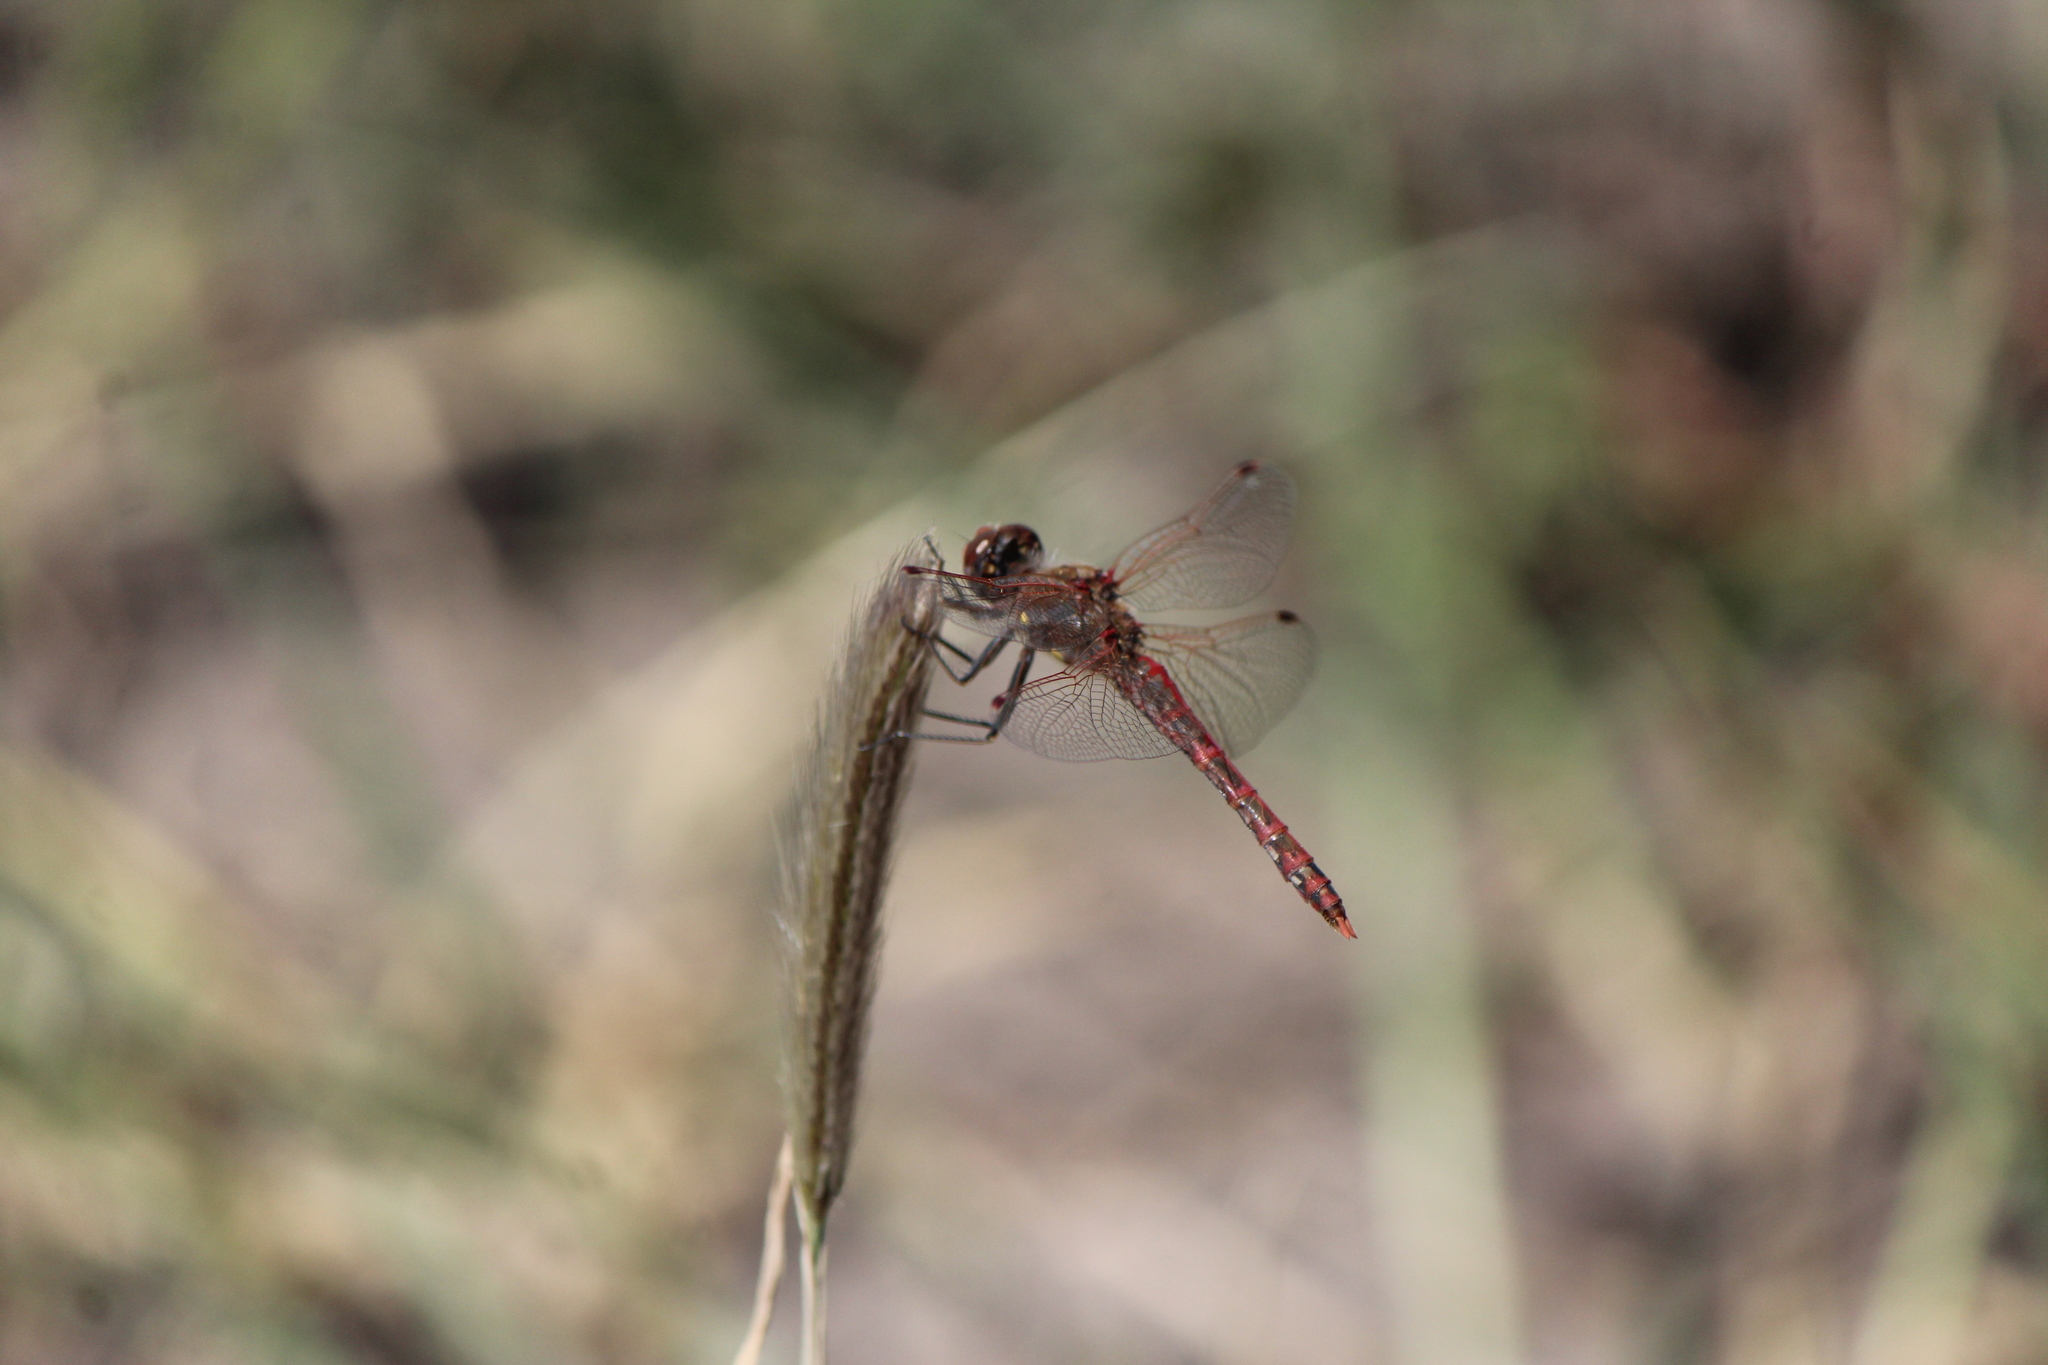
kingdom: Animalia
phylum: Arthropoda
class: Insecta
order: Odonata
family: Libellulidae
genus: Sympetrum
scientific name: Sympetrum corruptum
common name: Variegated meadowhawk
